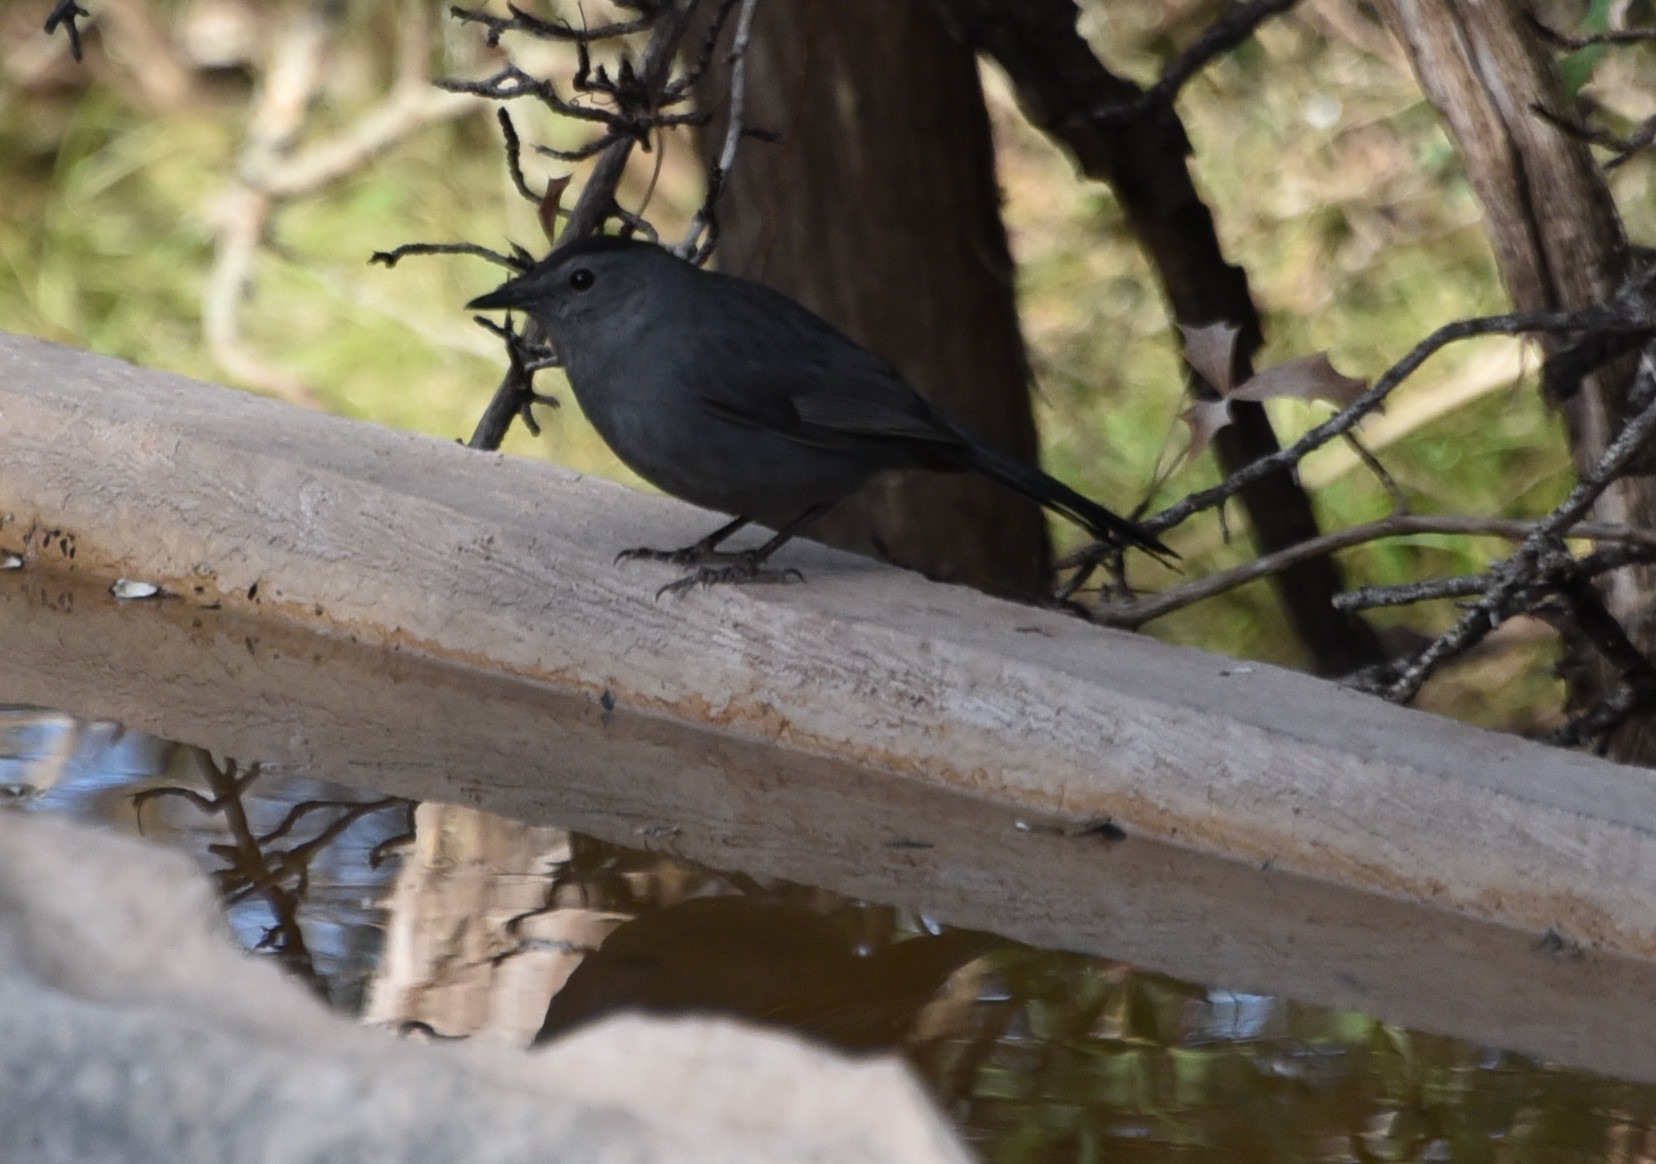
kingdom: Animalia
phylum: Chordata
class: Aves
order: Passeriformes
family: Mimidae
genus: Dumetella
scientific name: Dumetella carolinensis
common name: Gray catbird
